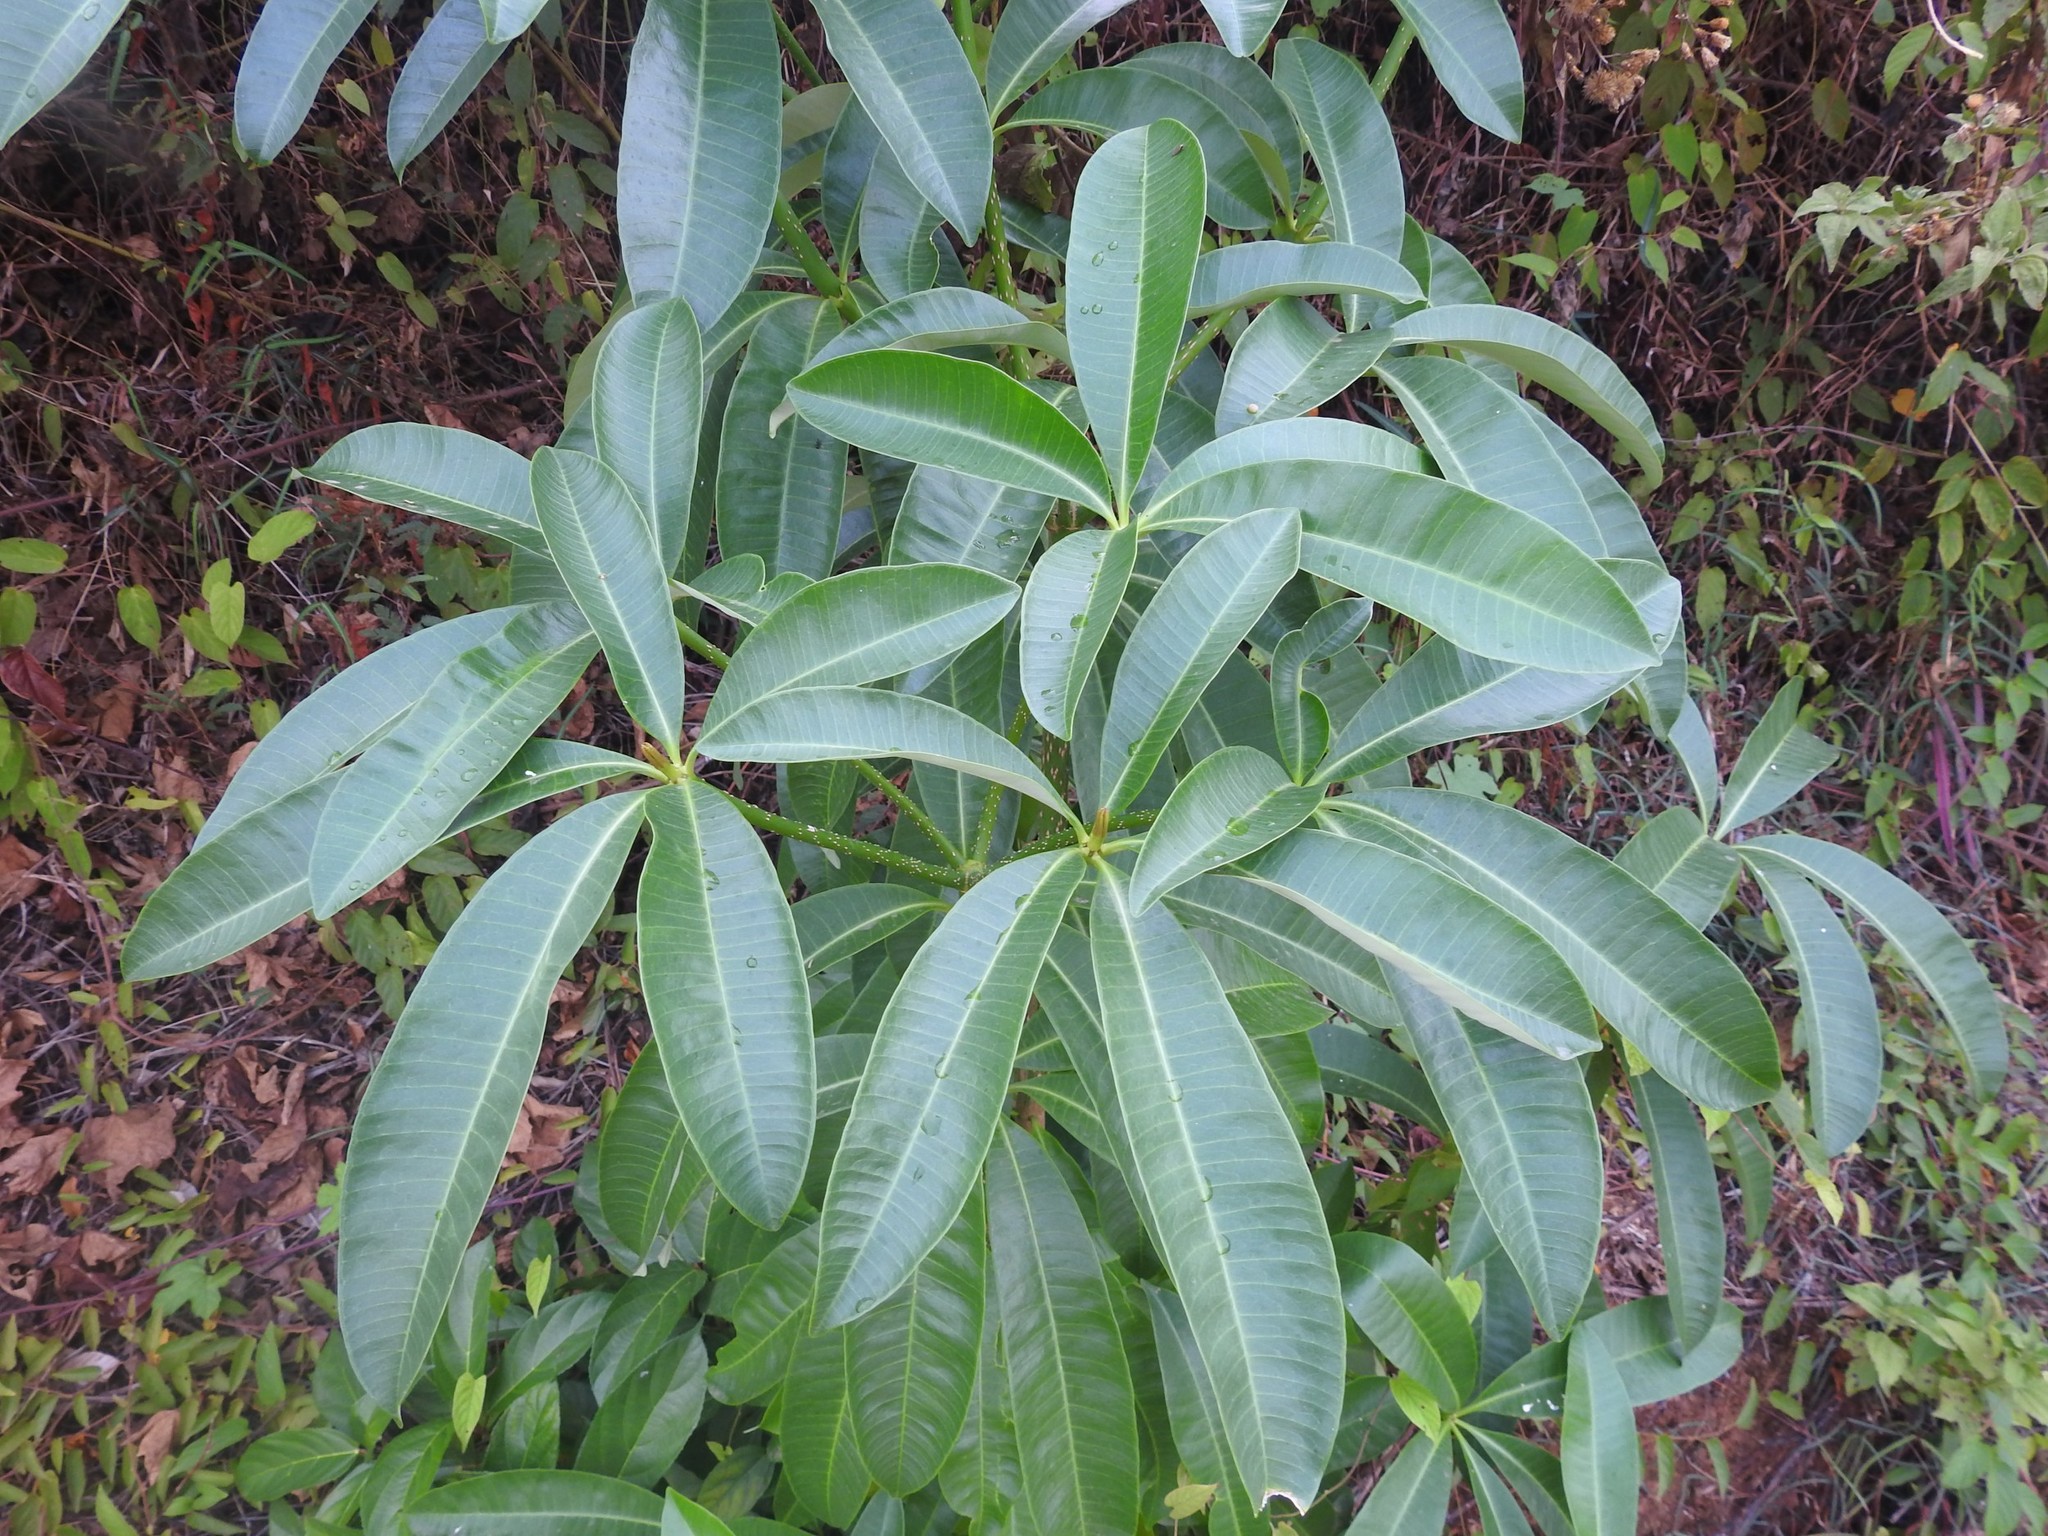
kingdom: Plantae
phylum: Tracheophyta
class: Magnoliopsida
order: Gentianales
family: Apocynaceae
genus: Alstonia
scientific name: Alstonia scholaris
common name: White cheesewood
